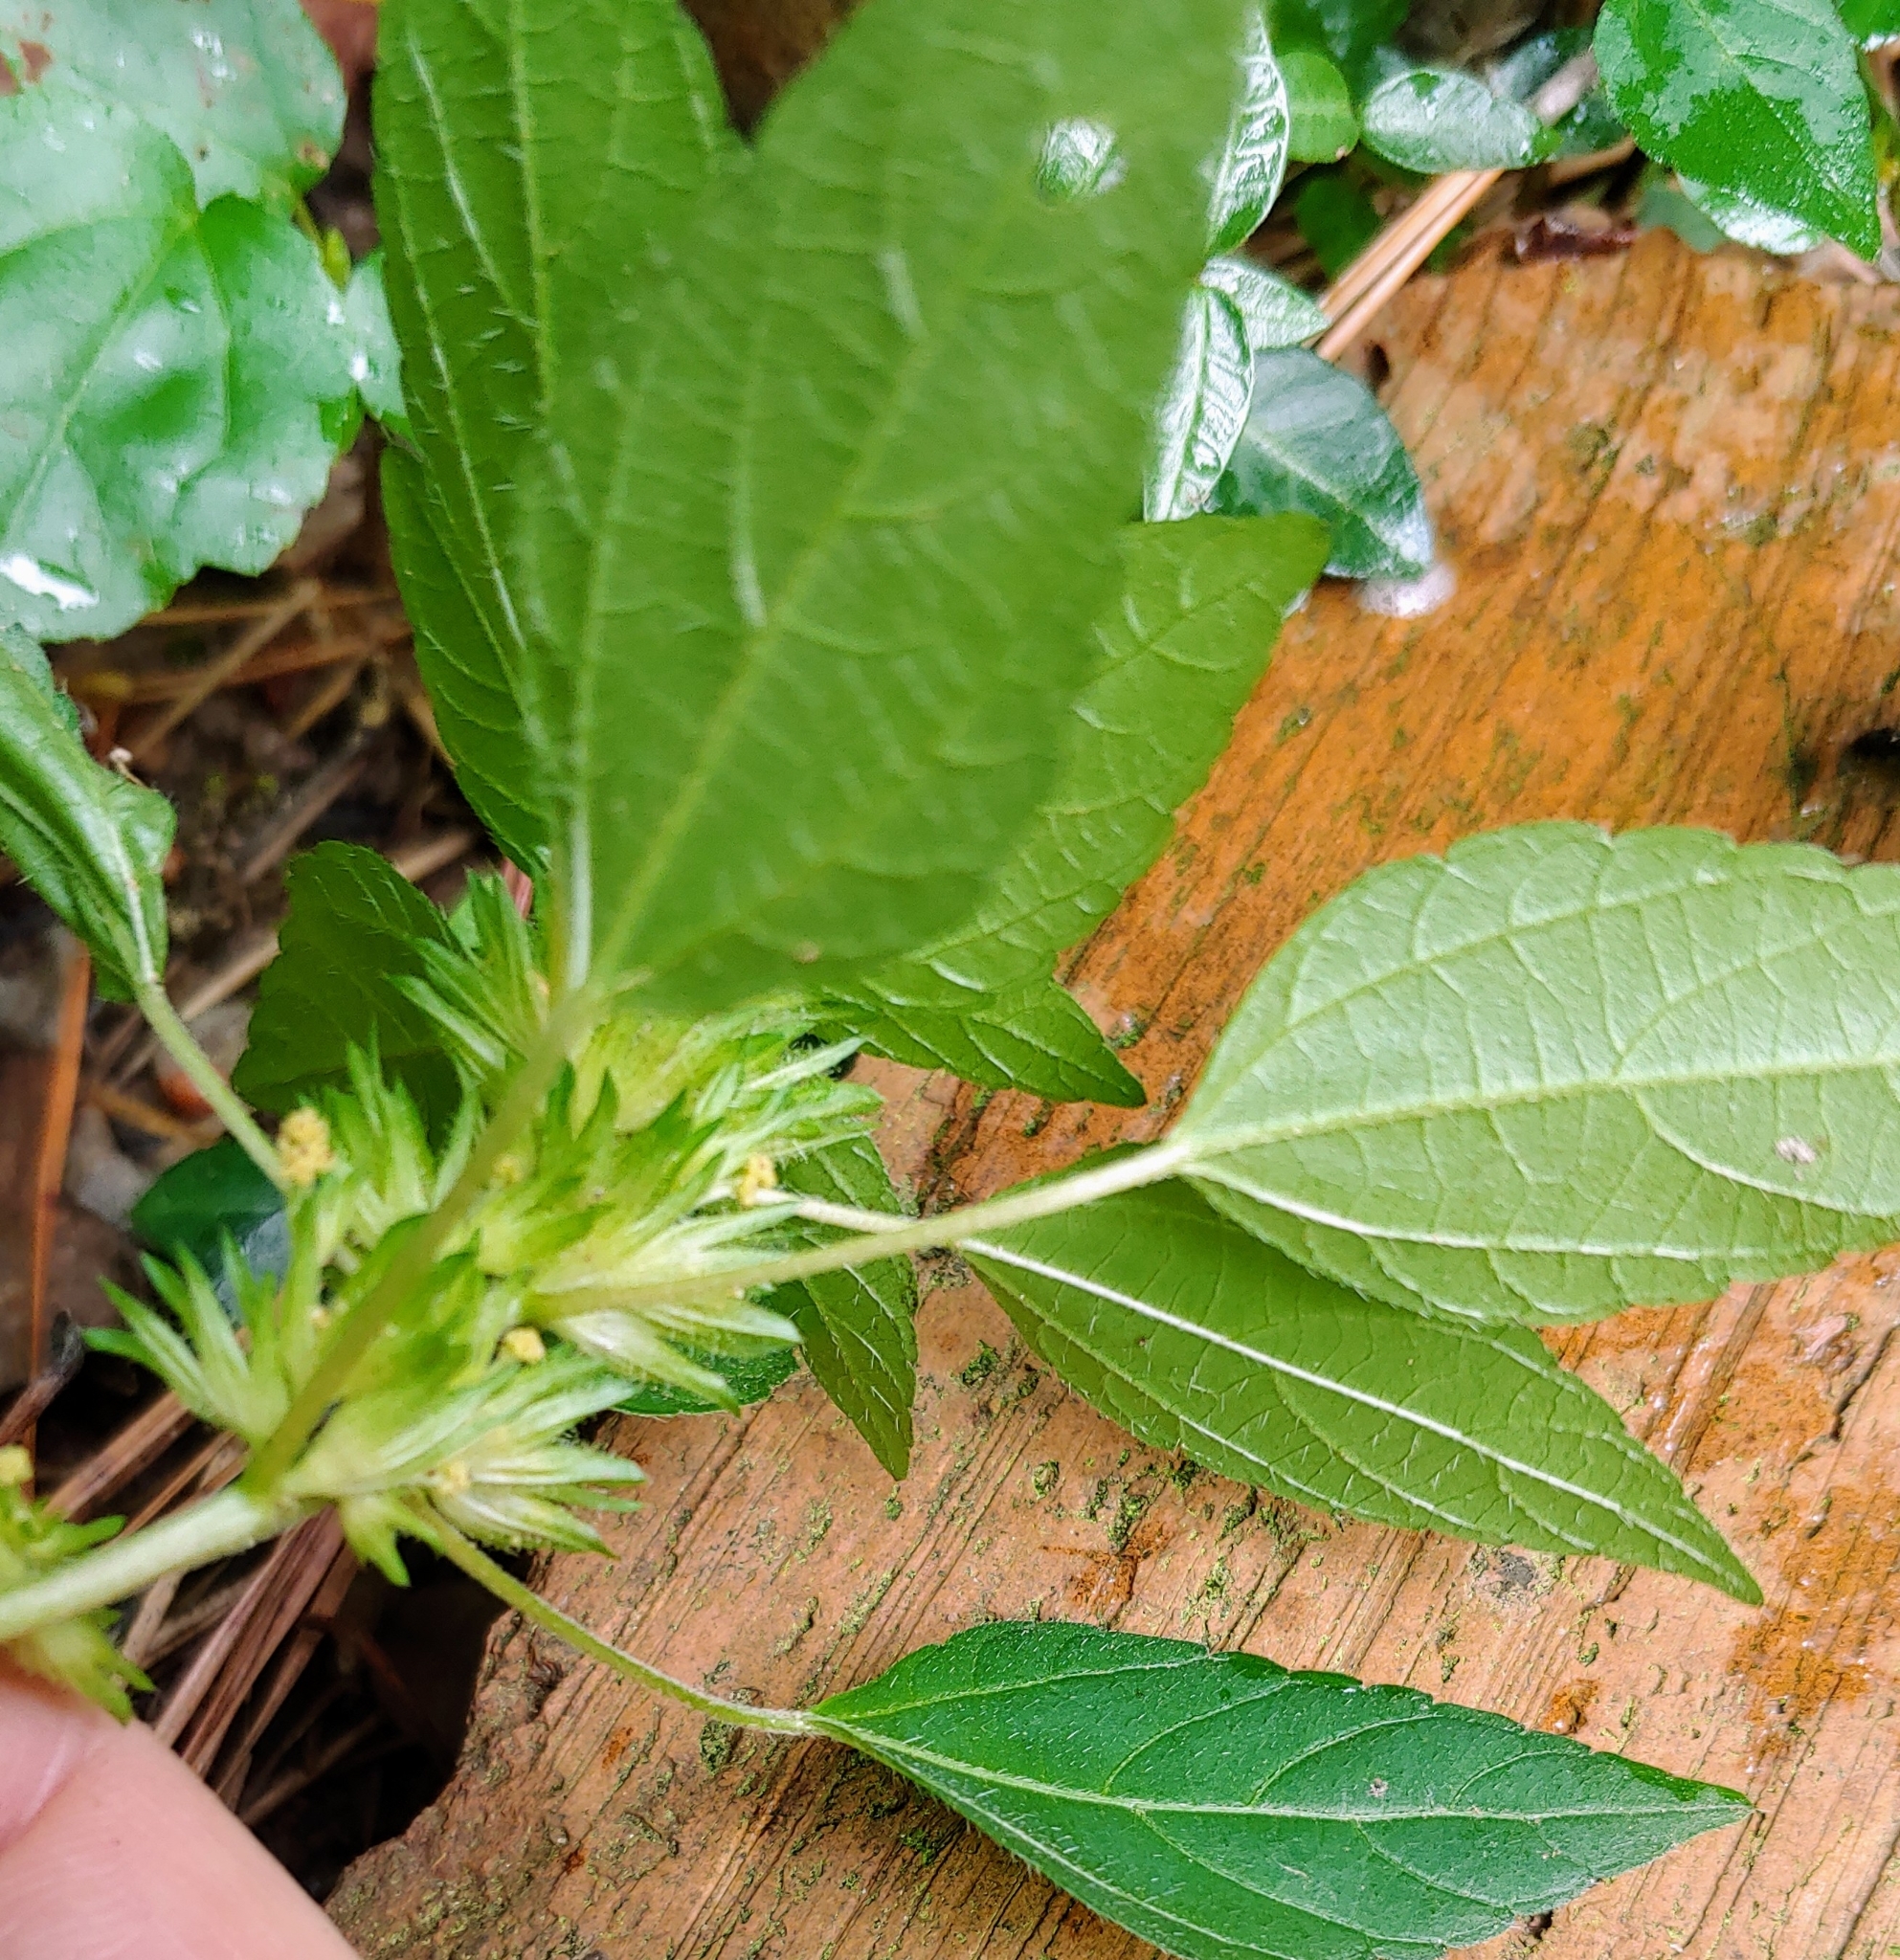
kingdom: Plantae
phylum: Tracheophyta
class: Magnoliopsida
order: Malpighiales
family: Euphorbiaceae
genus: Acalypha
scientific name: Acalypha rhomboidea
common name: Rhombic copperleaf
